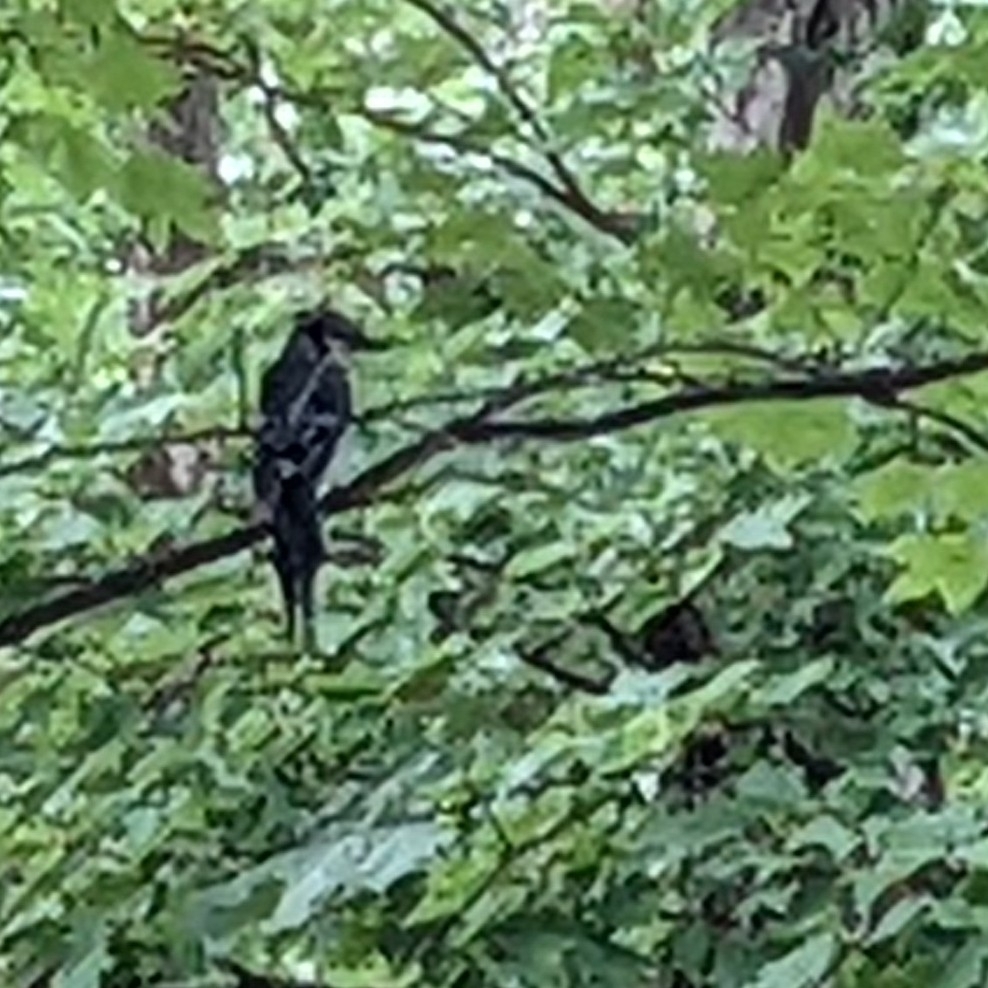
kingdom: Animalia
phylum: Chordata
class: Aves
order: Passeriformes
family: Corvidae
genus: Cyanocitta
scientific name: Cyanocitta cristata
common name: Blue jay
